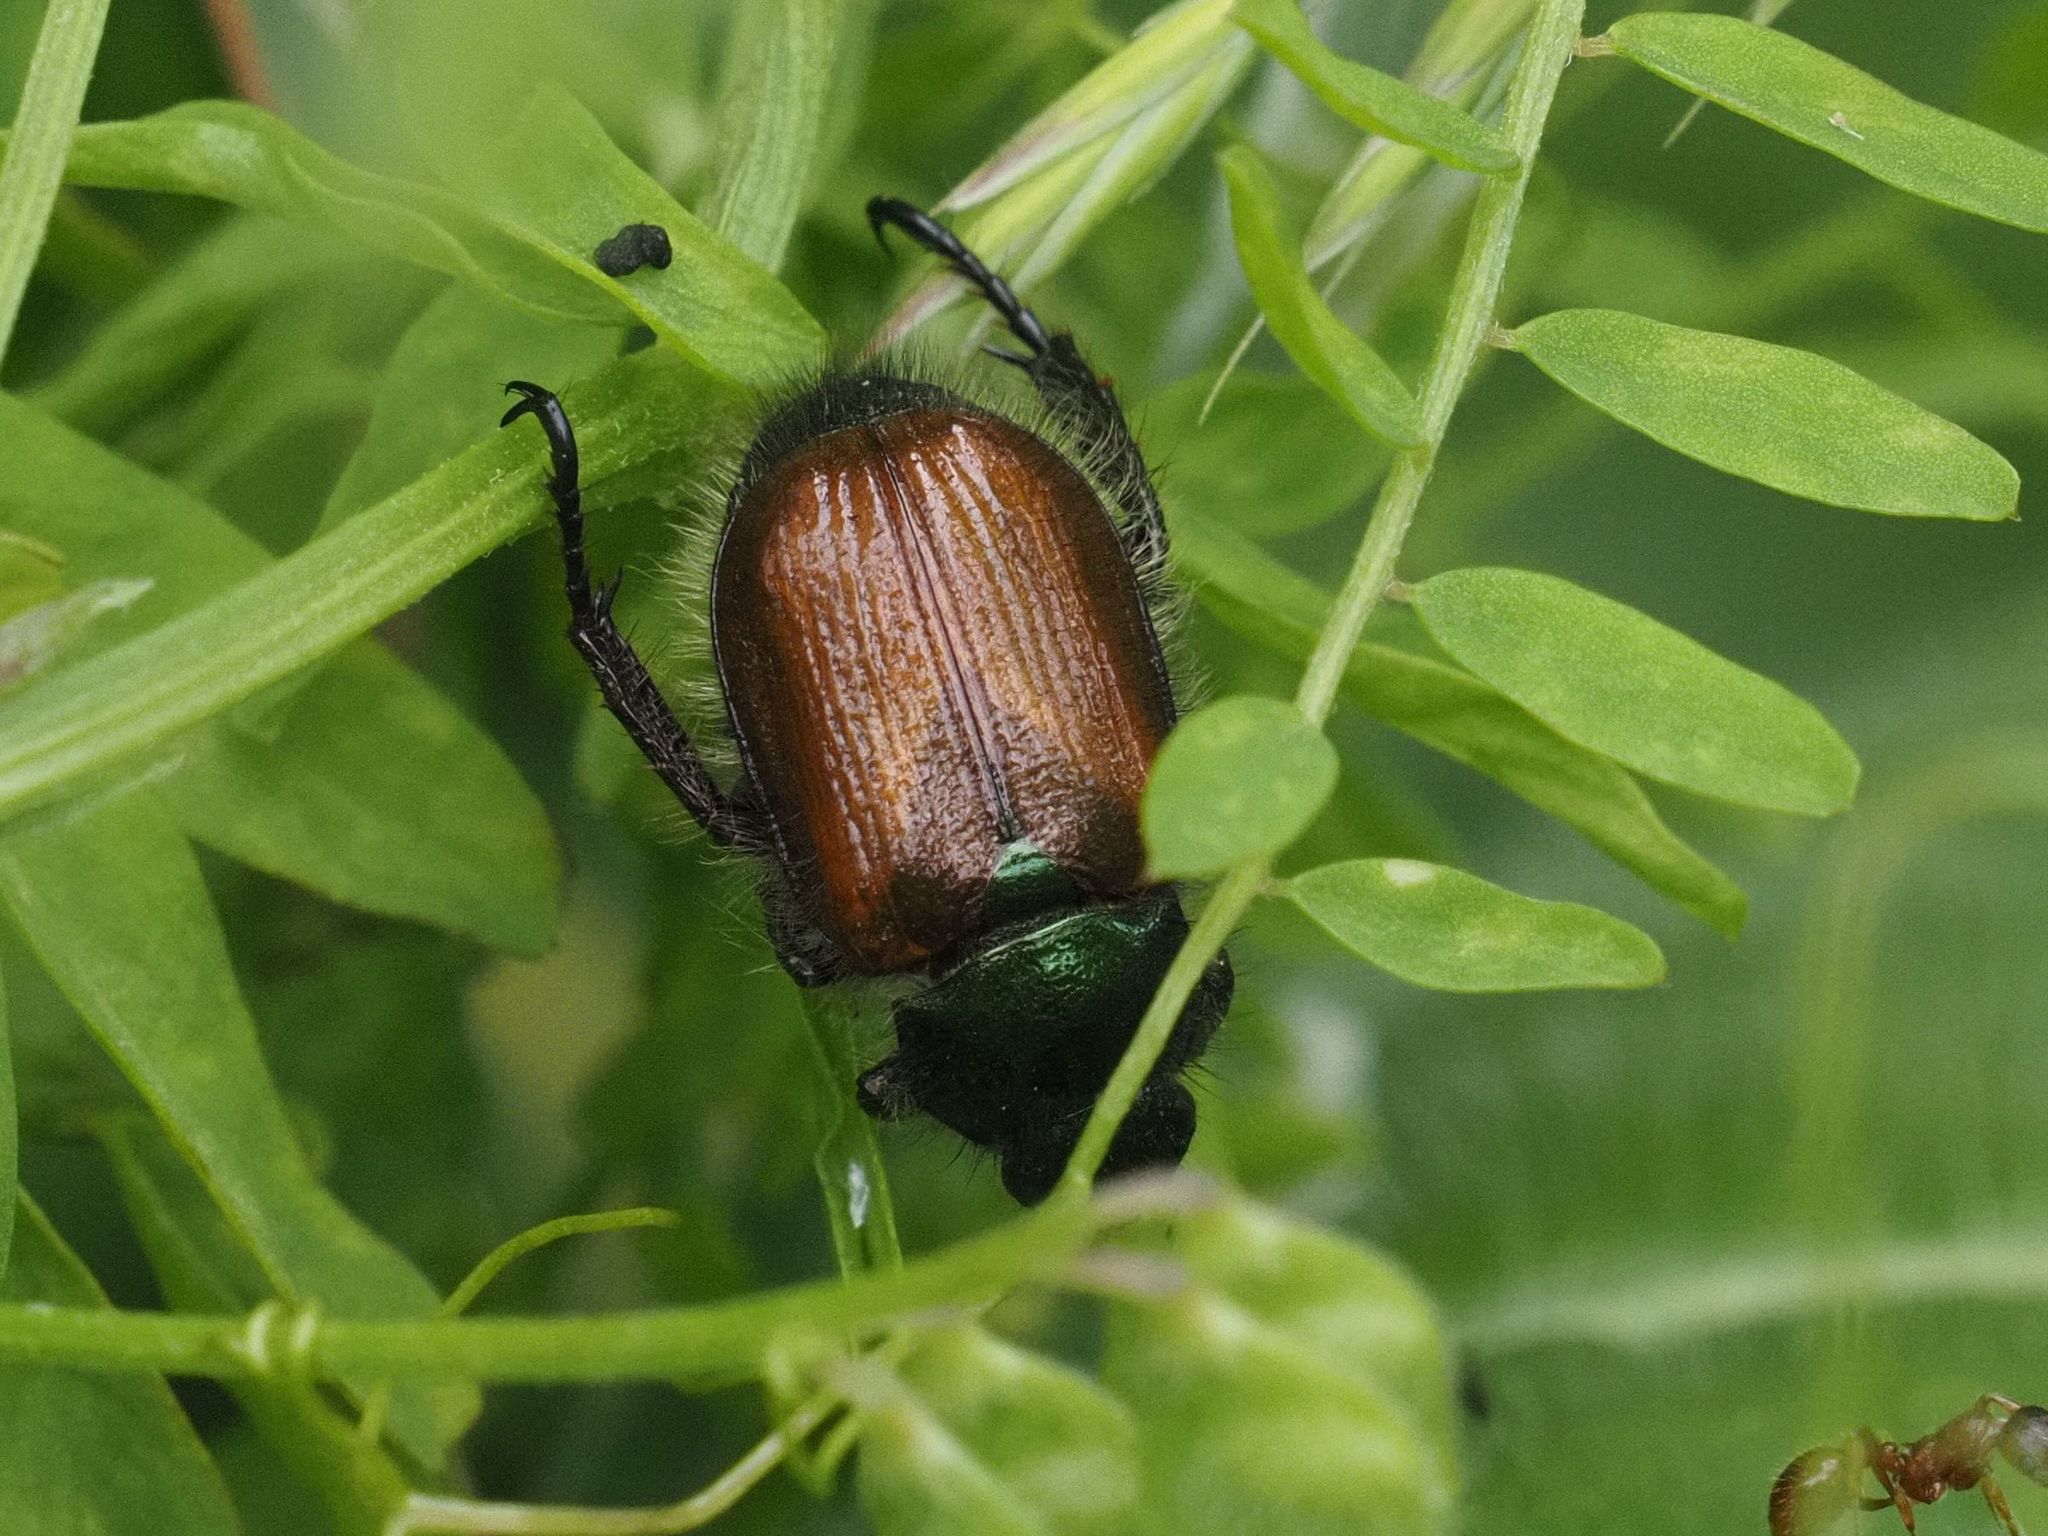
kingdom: Animalia
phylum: Arthropoda
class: Insecta
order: Coleoptera
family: Scarabaeidae
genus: Phyllopertha
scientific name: Phyllopertha horticola
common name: Garden chafer
